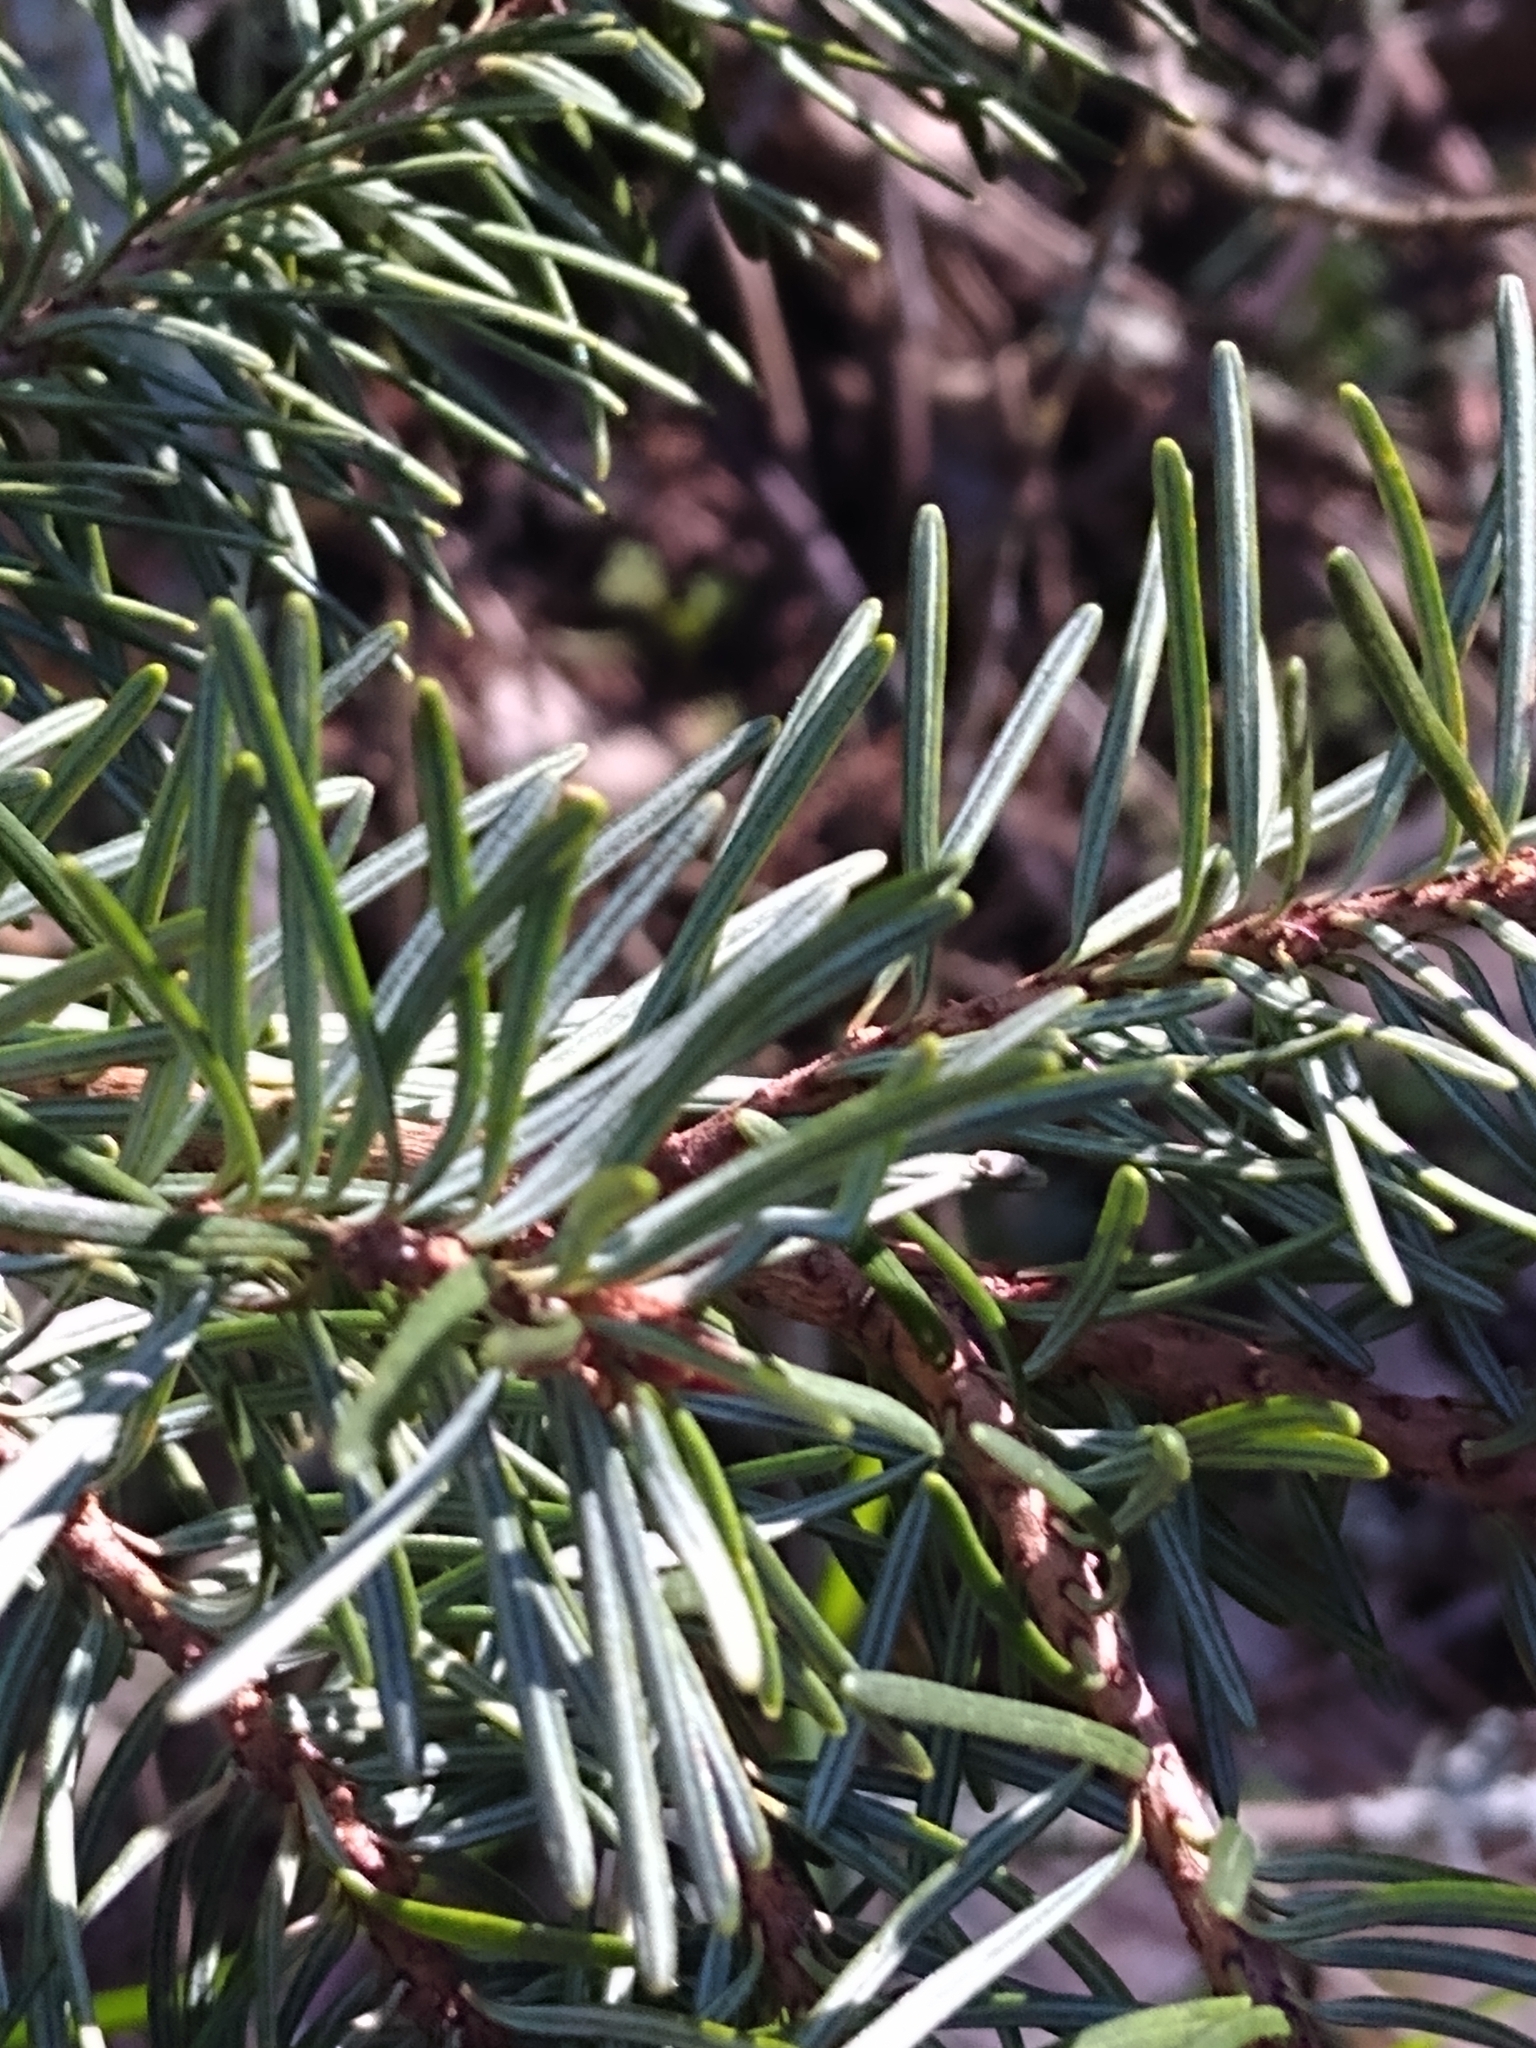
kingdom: Plantae
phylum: Tracheophyta
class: Pinopsida
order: Pinales
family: Pinaceae
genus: Pseudotsuga
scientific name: Pseudotsuga menziesii
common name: Douglas fir
